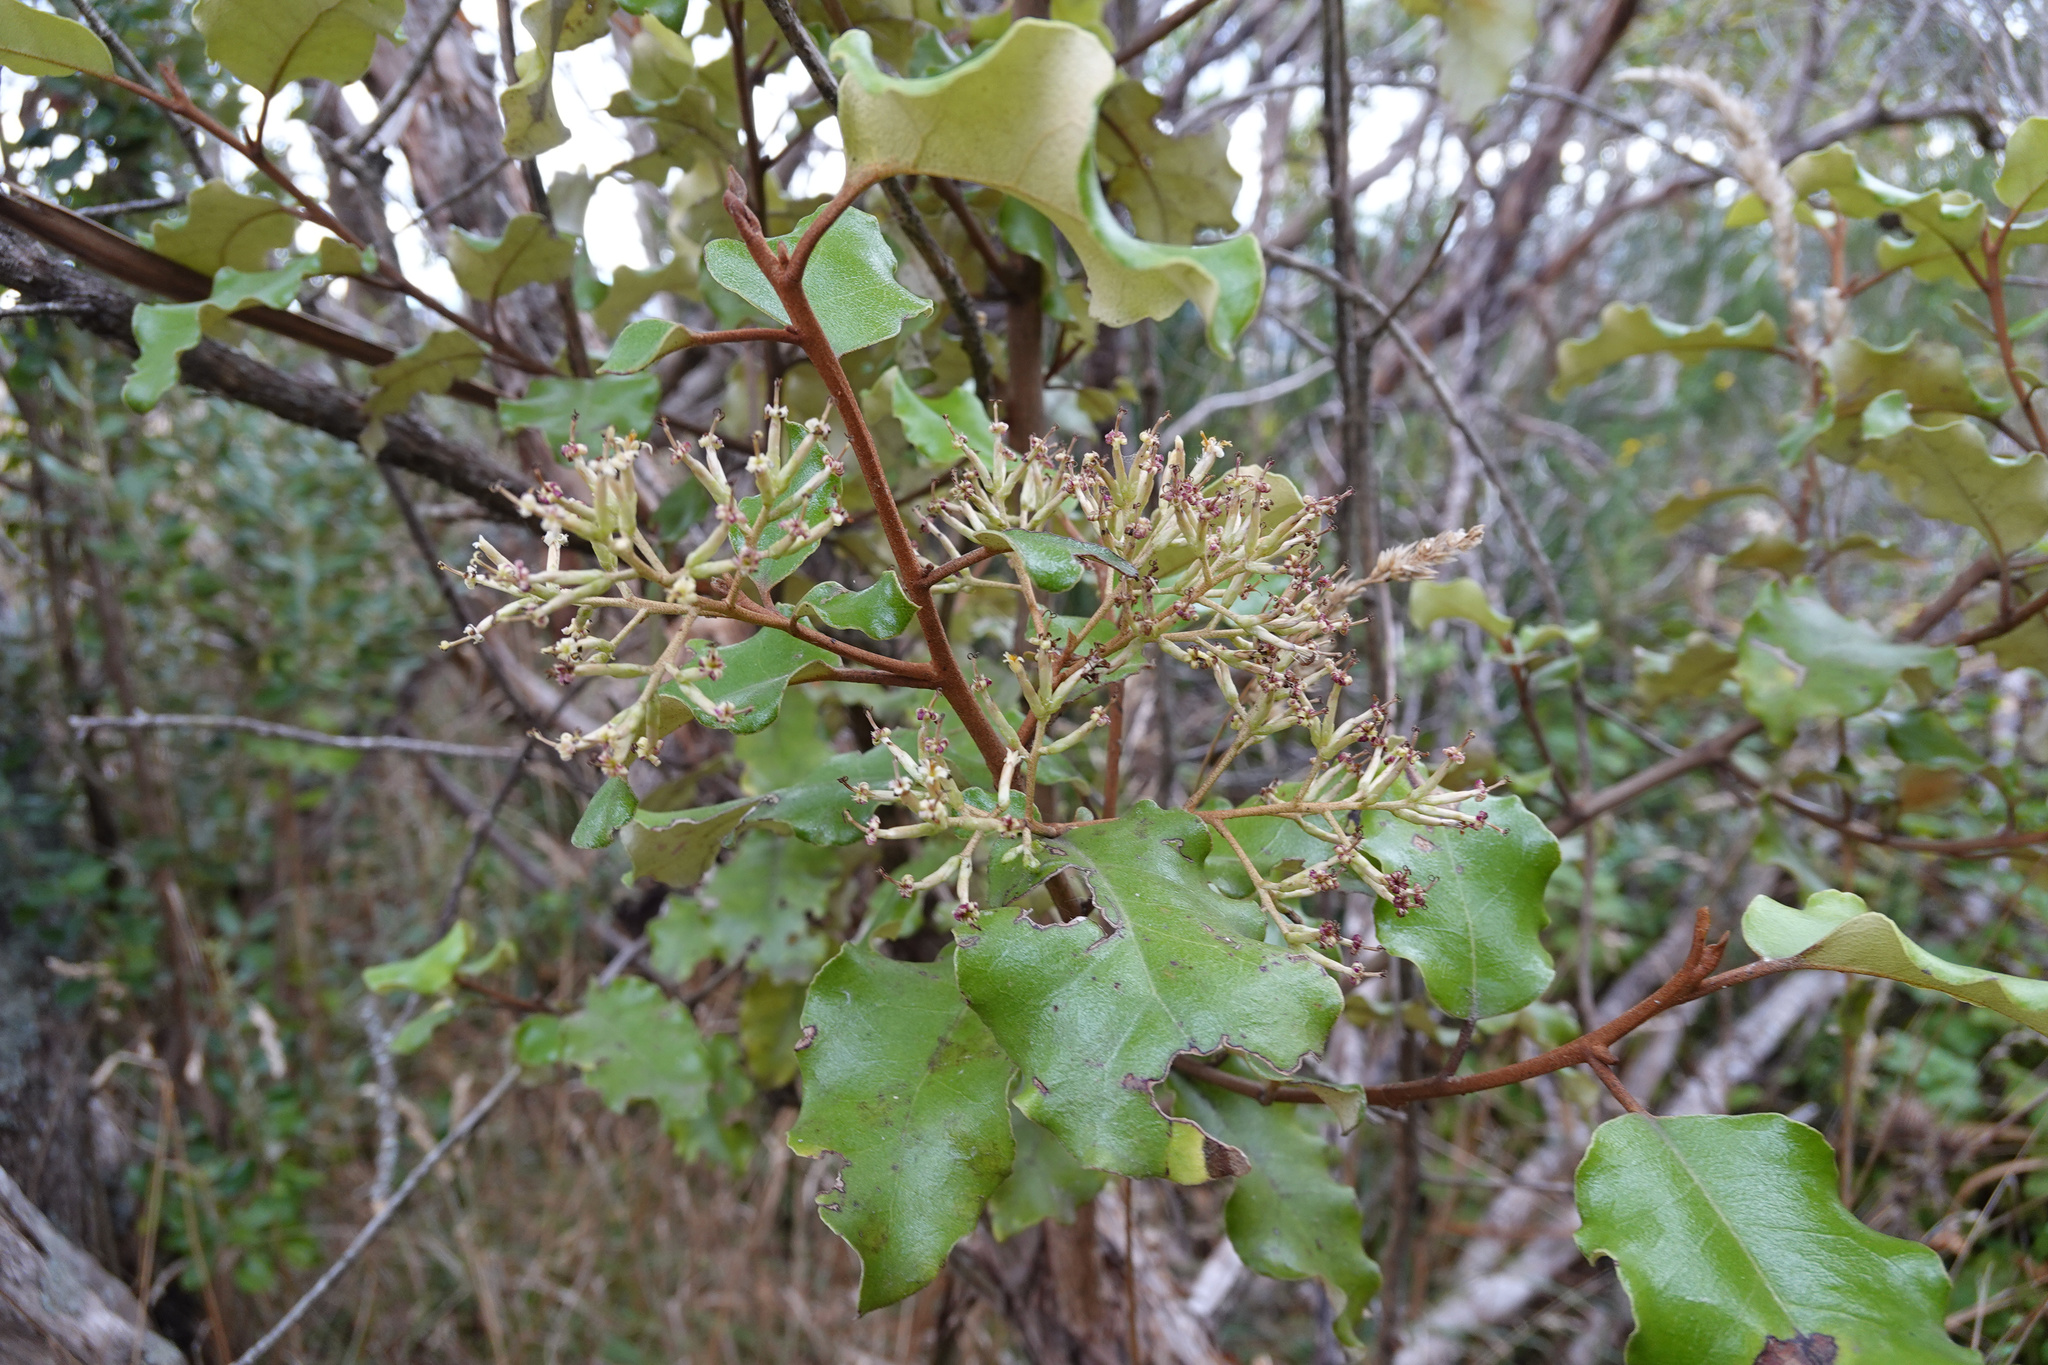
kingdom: Plantae
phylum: Tracheophyta
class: Magnoliopsida
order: Asterales
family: Asteraceae
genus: Olearia
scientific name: Olearia paniculata
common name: Akiraho
